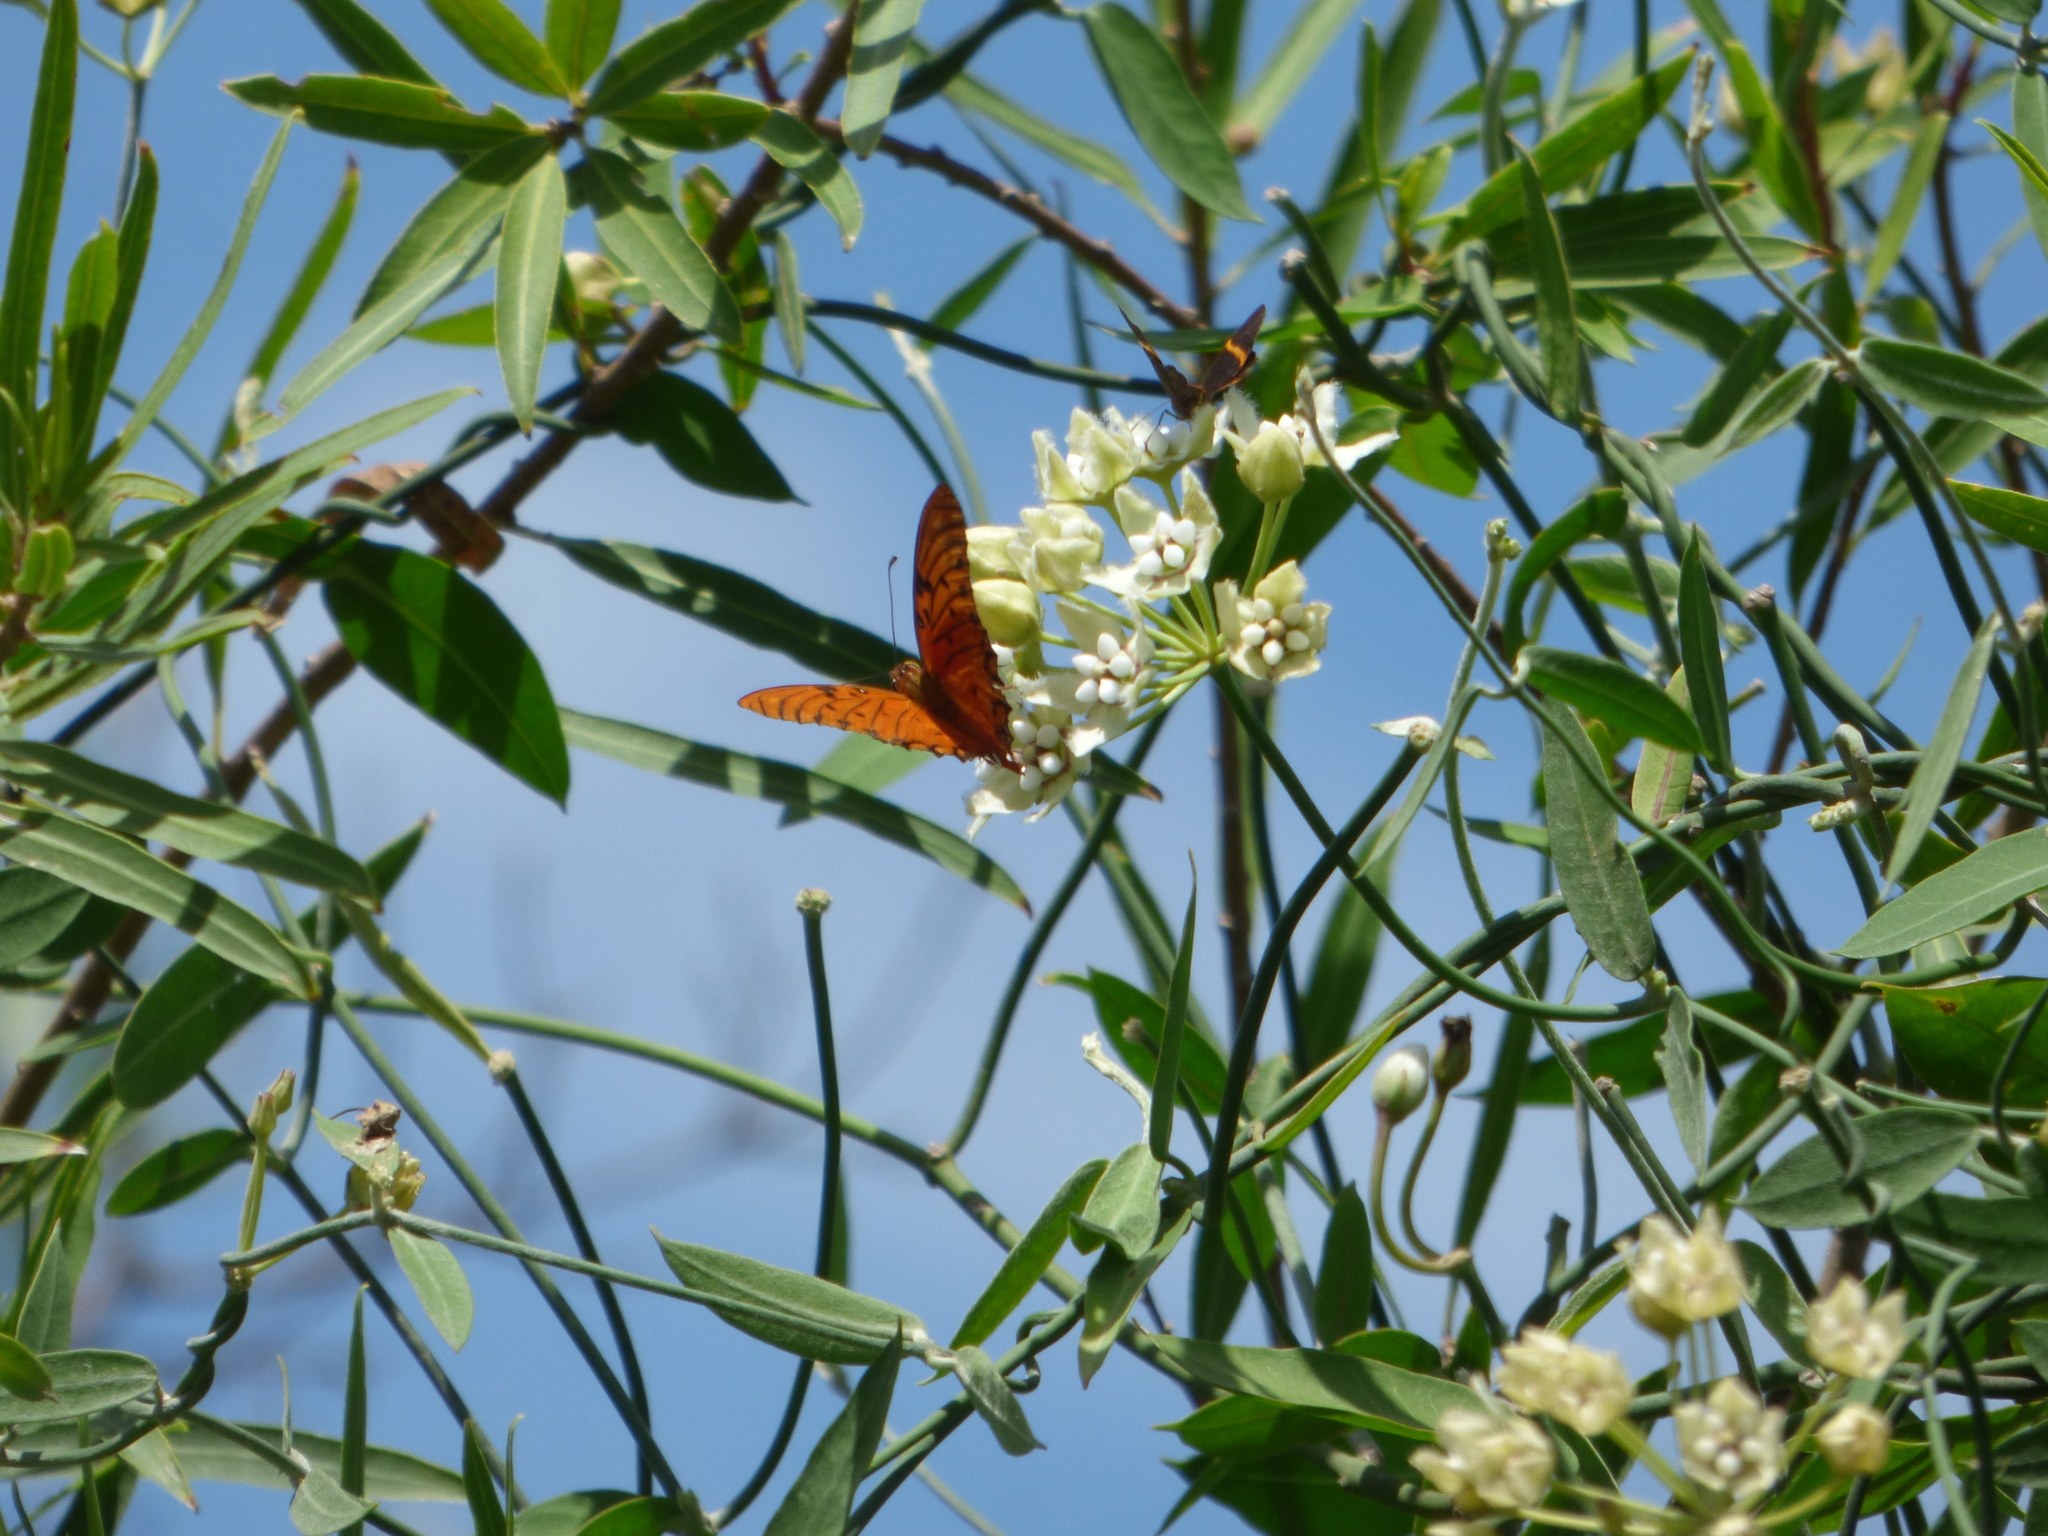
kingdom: Plantae
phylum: Tracheophyta
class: Magnoliopsida
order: Gentianales
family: Apocynaceae
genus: Funastrum
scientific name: Funastrum clausum
